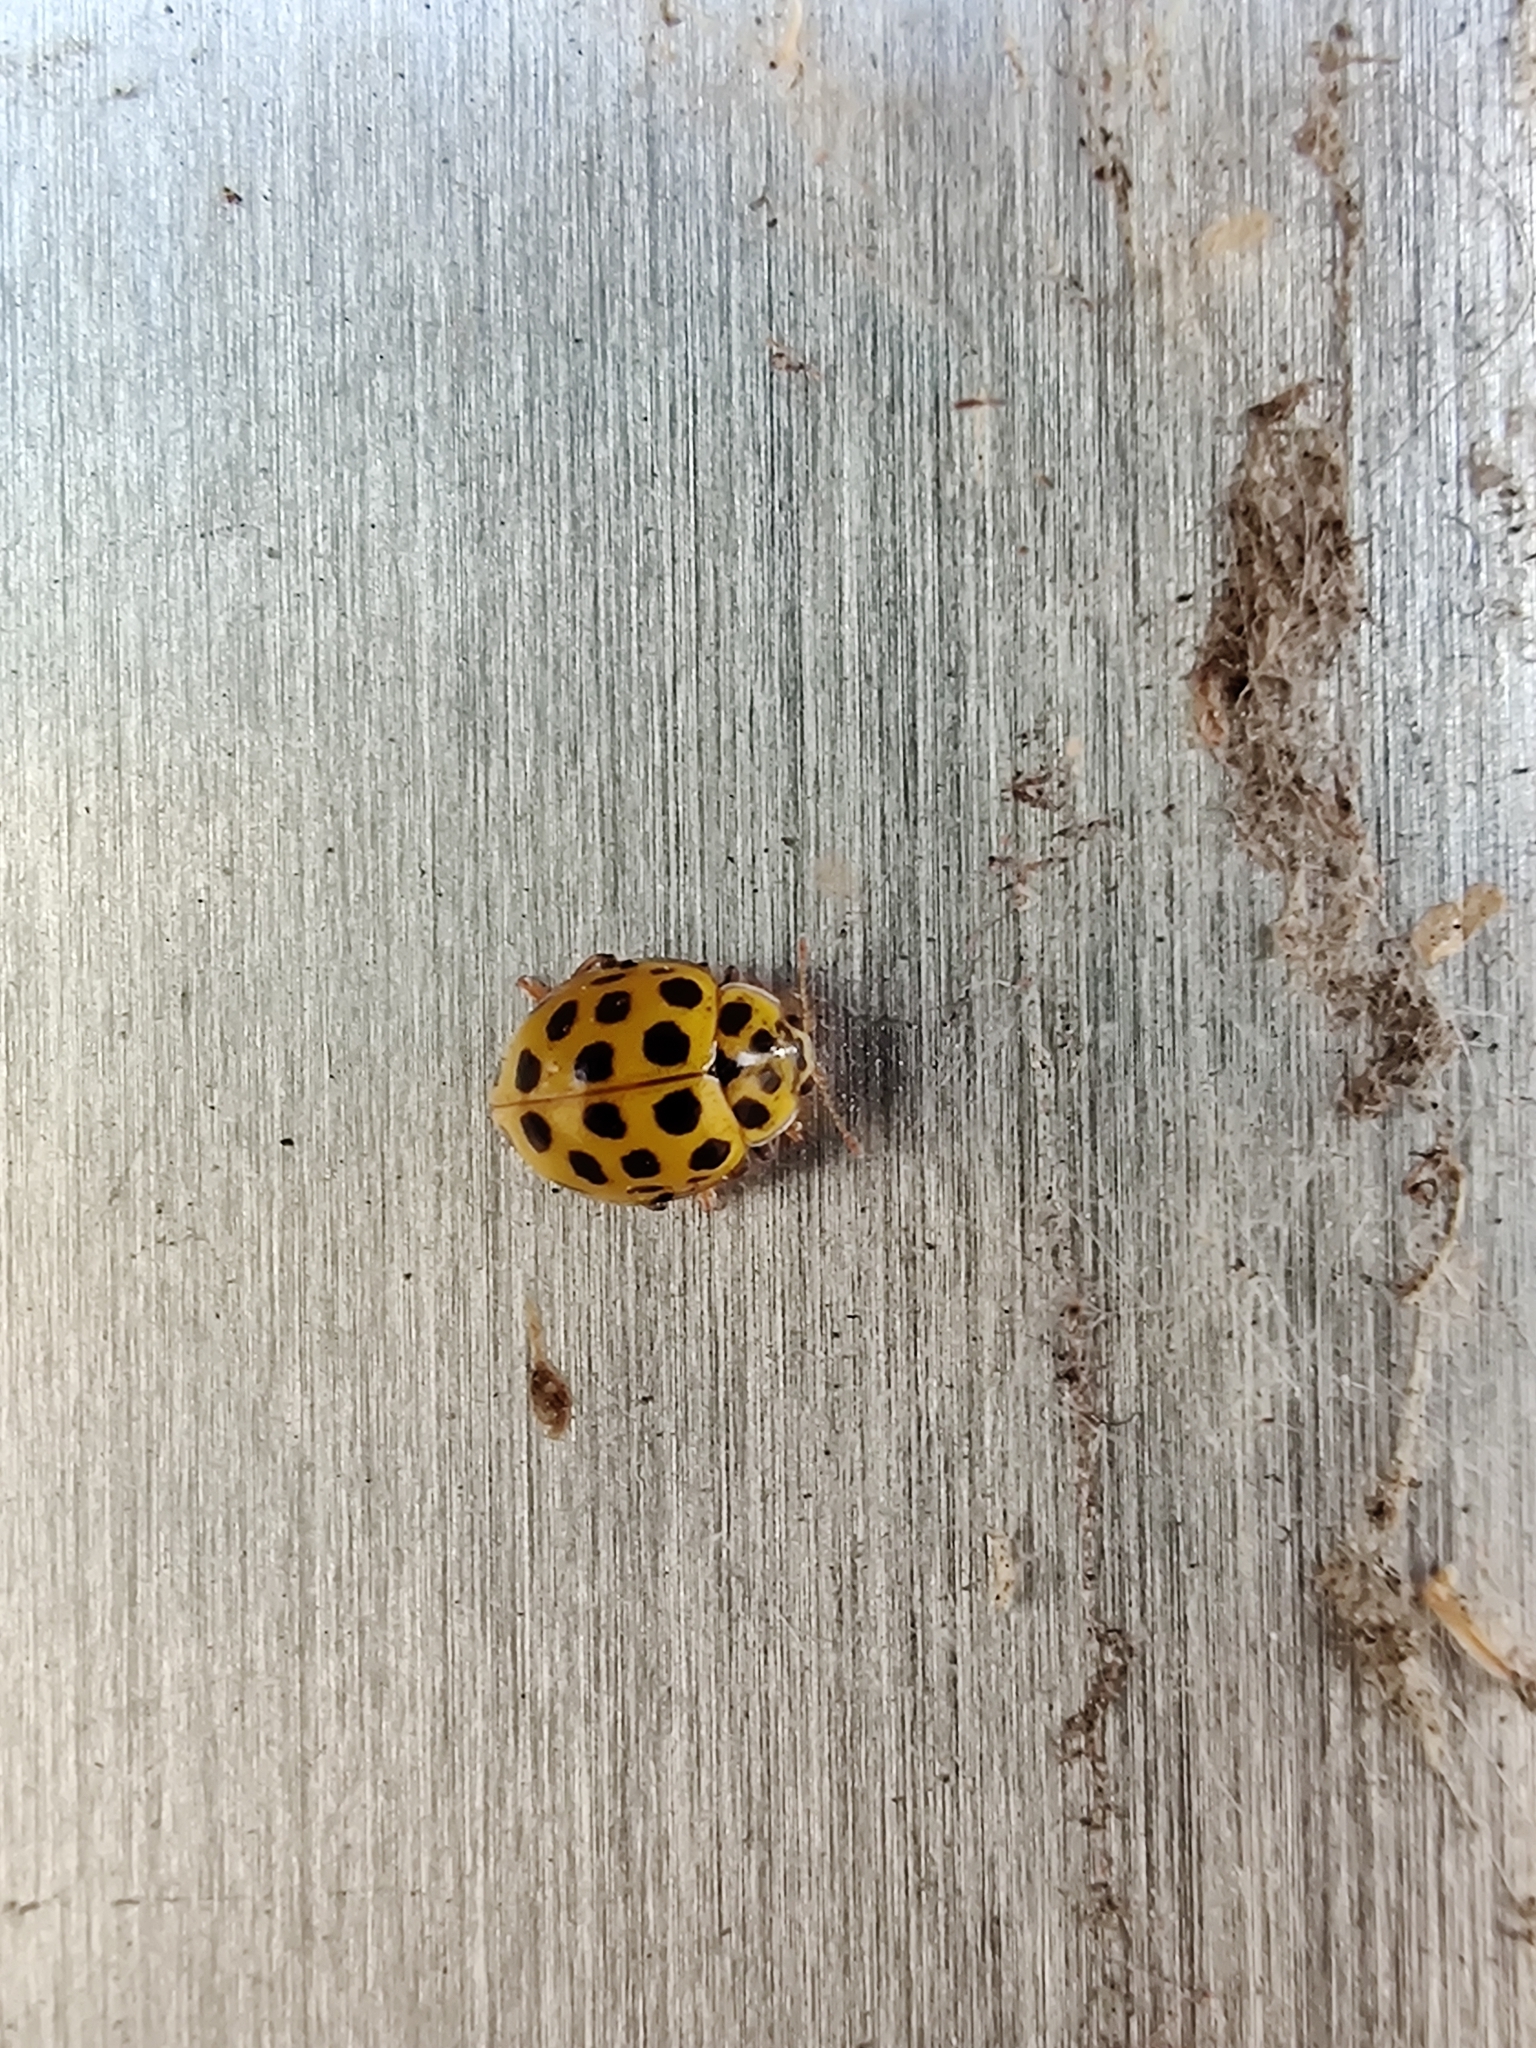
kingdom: Animalia
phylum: Arthropoda
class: Insecta
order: Coleoptera
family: Coccinellidae
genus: Psyllobora
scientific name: Psyllobora vigintiduopunctata
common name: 22-spot ladybird
